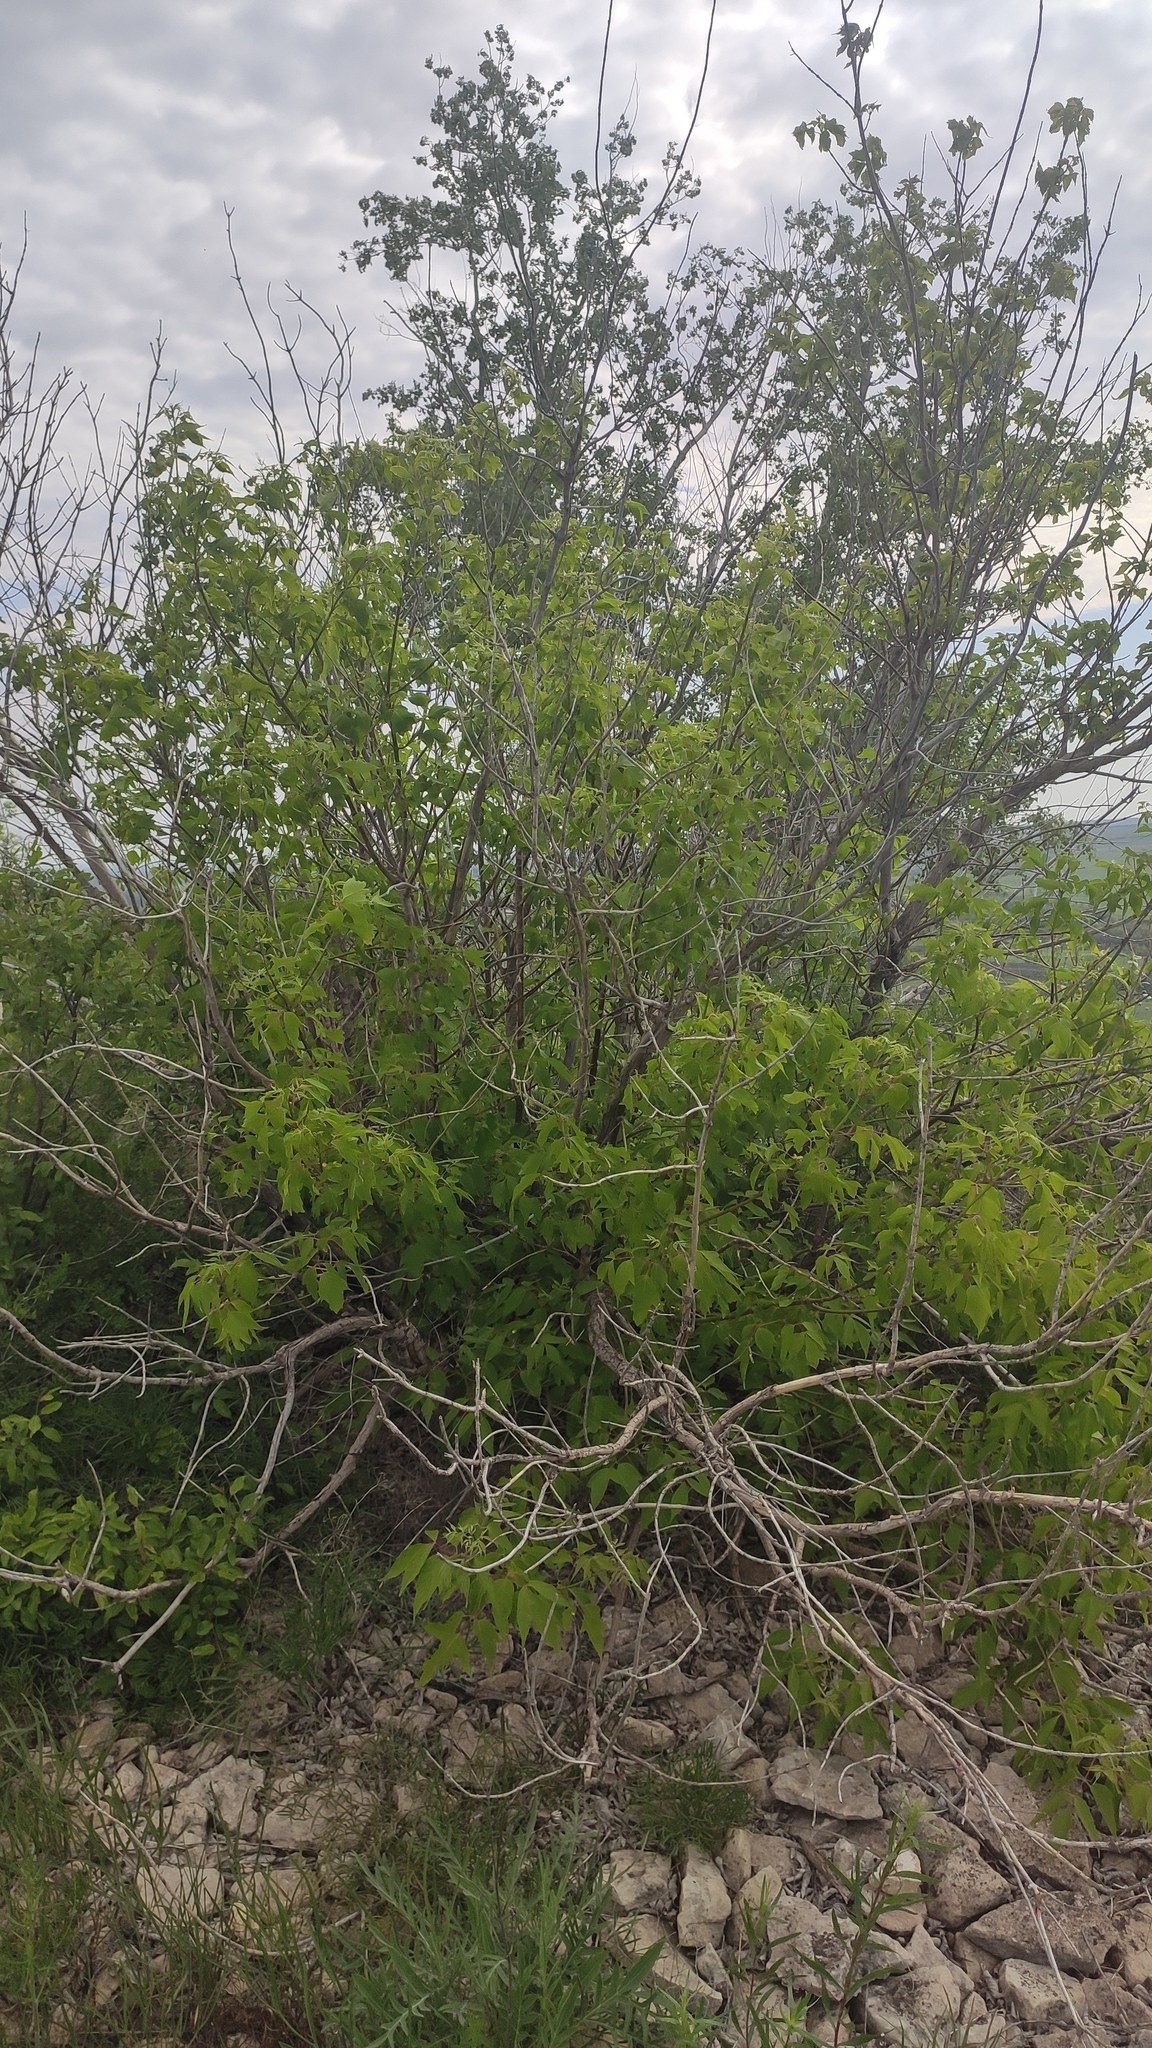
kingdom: Plantae
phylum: Tracheophyta
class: Magnoliopsida
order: Sapindales
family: Sapindaceae
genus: Acer
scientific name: Acer negundo
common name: Ashleaf maple
